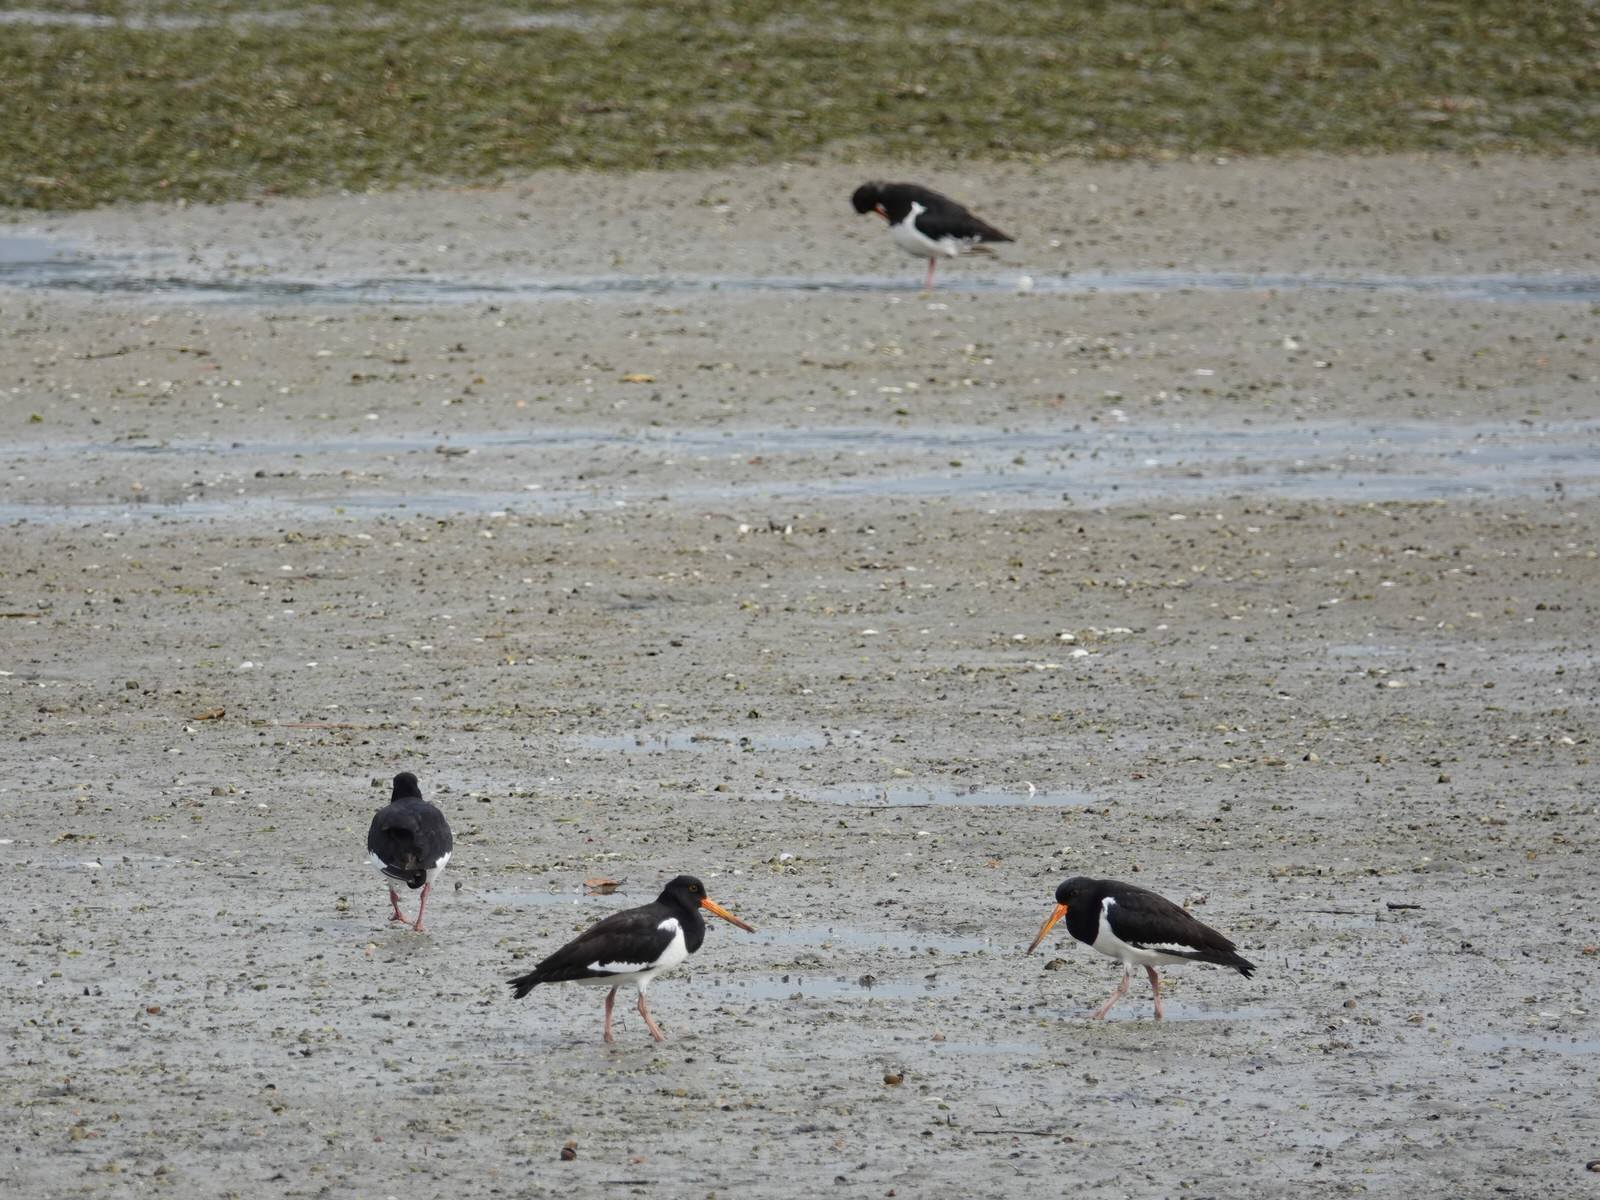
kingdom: Animalia
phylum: Chordata
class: Aves
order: Charadriiformes
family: Haematopodidae
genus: Haematopus
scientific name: Haematopus finschi
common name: South island oystercatcher
